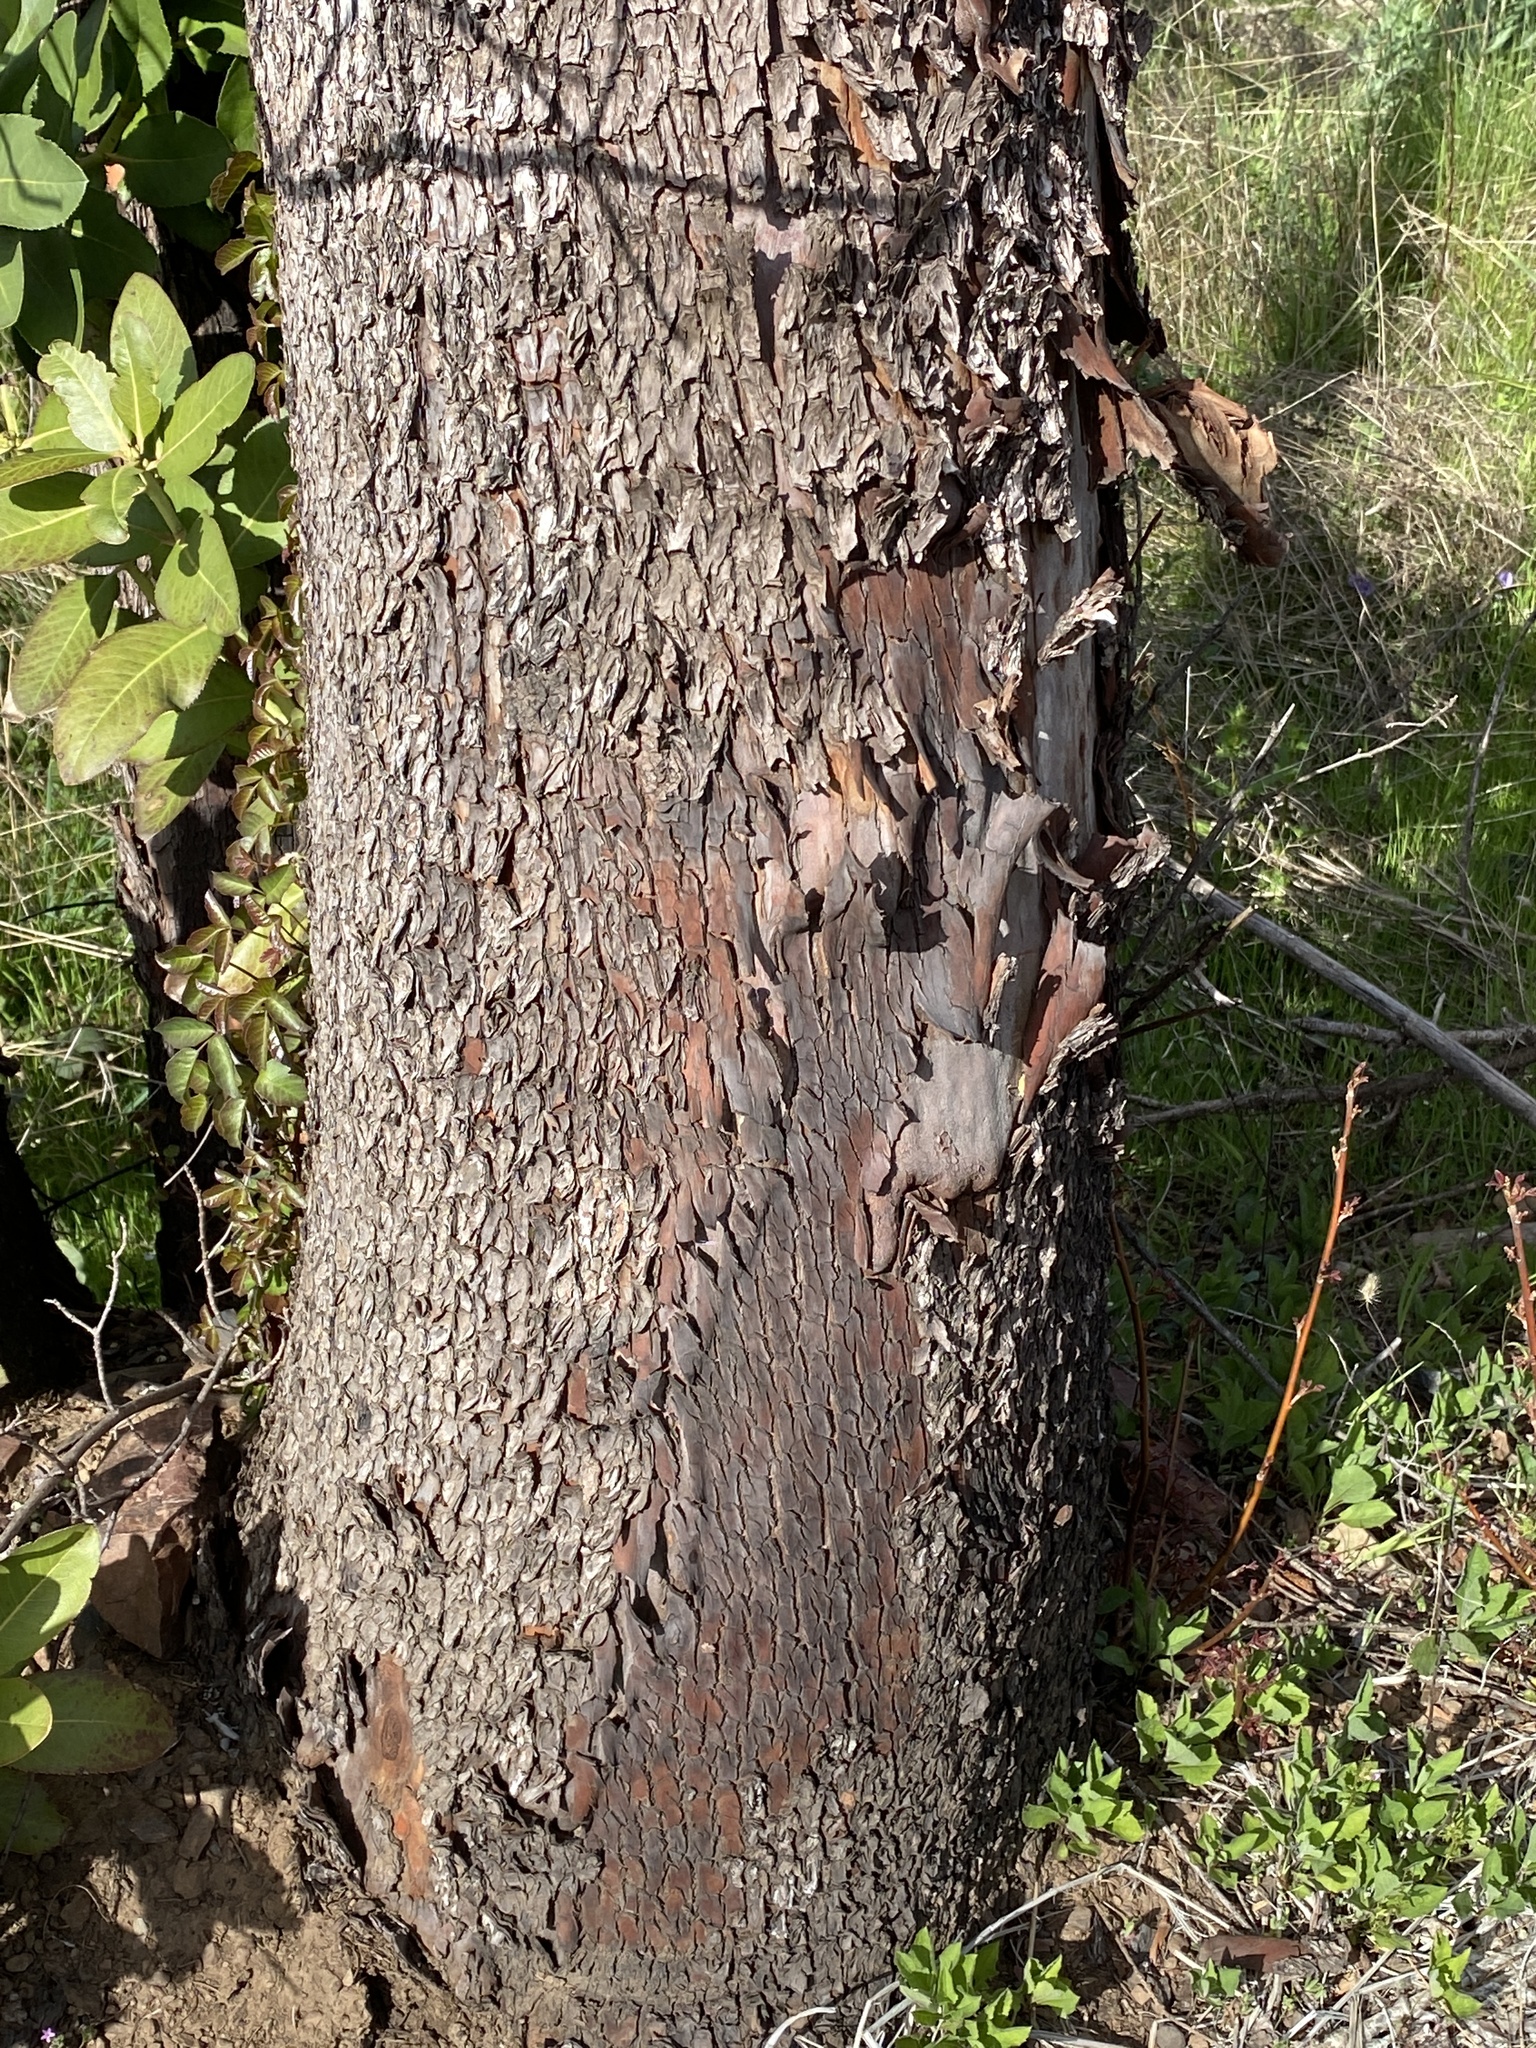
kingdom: Plantae
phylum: Tracheophyta
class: Magnoliopsida
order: Ericales
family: Ericaceae
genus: Arbutus
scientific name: Arbutus menziesii
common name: Pacific madrone
